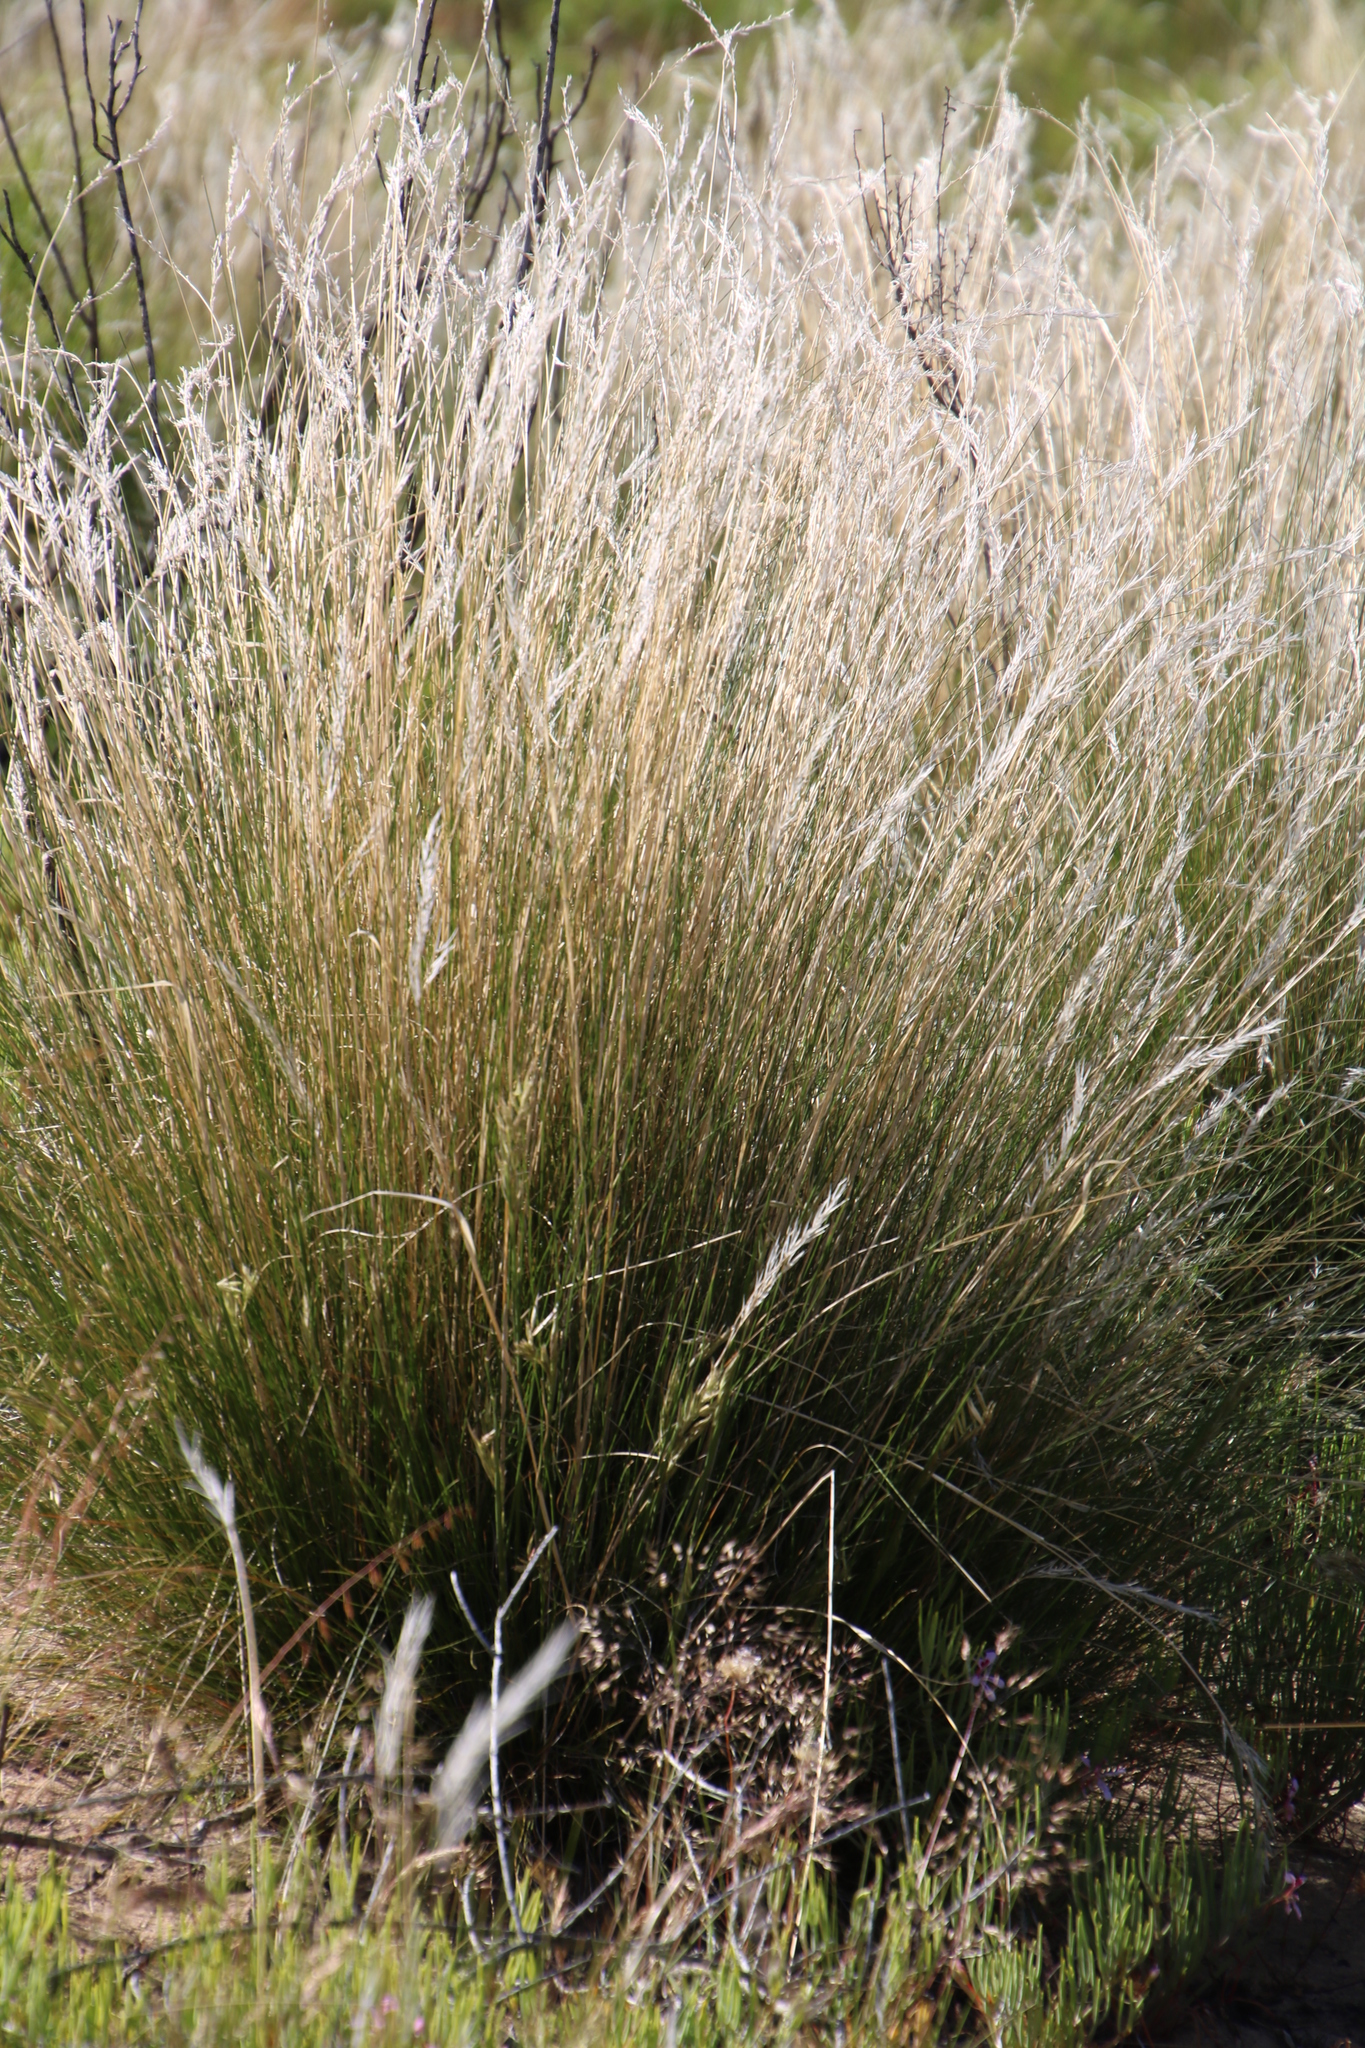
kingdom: Plantae
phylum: Tracheophyta
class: Liliopsida
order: Poales
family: Poaceae
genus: Tenaxia
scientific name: Tenaxia stricta
